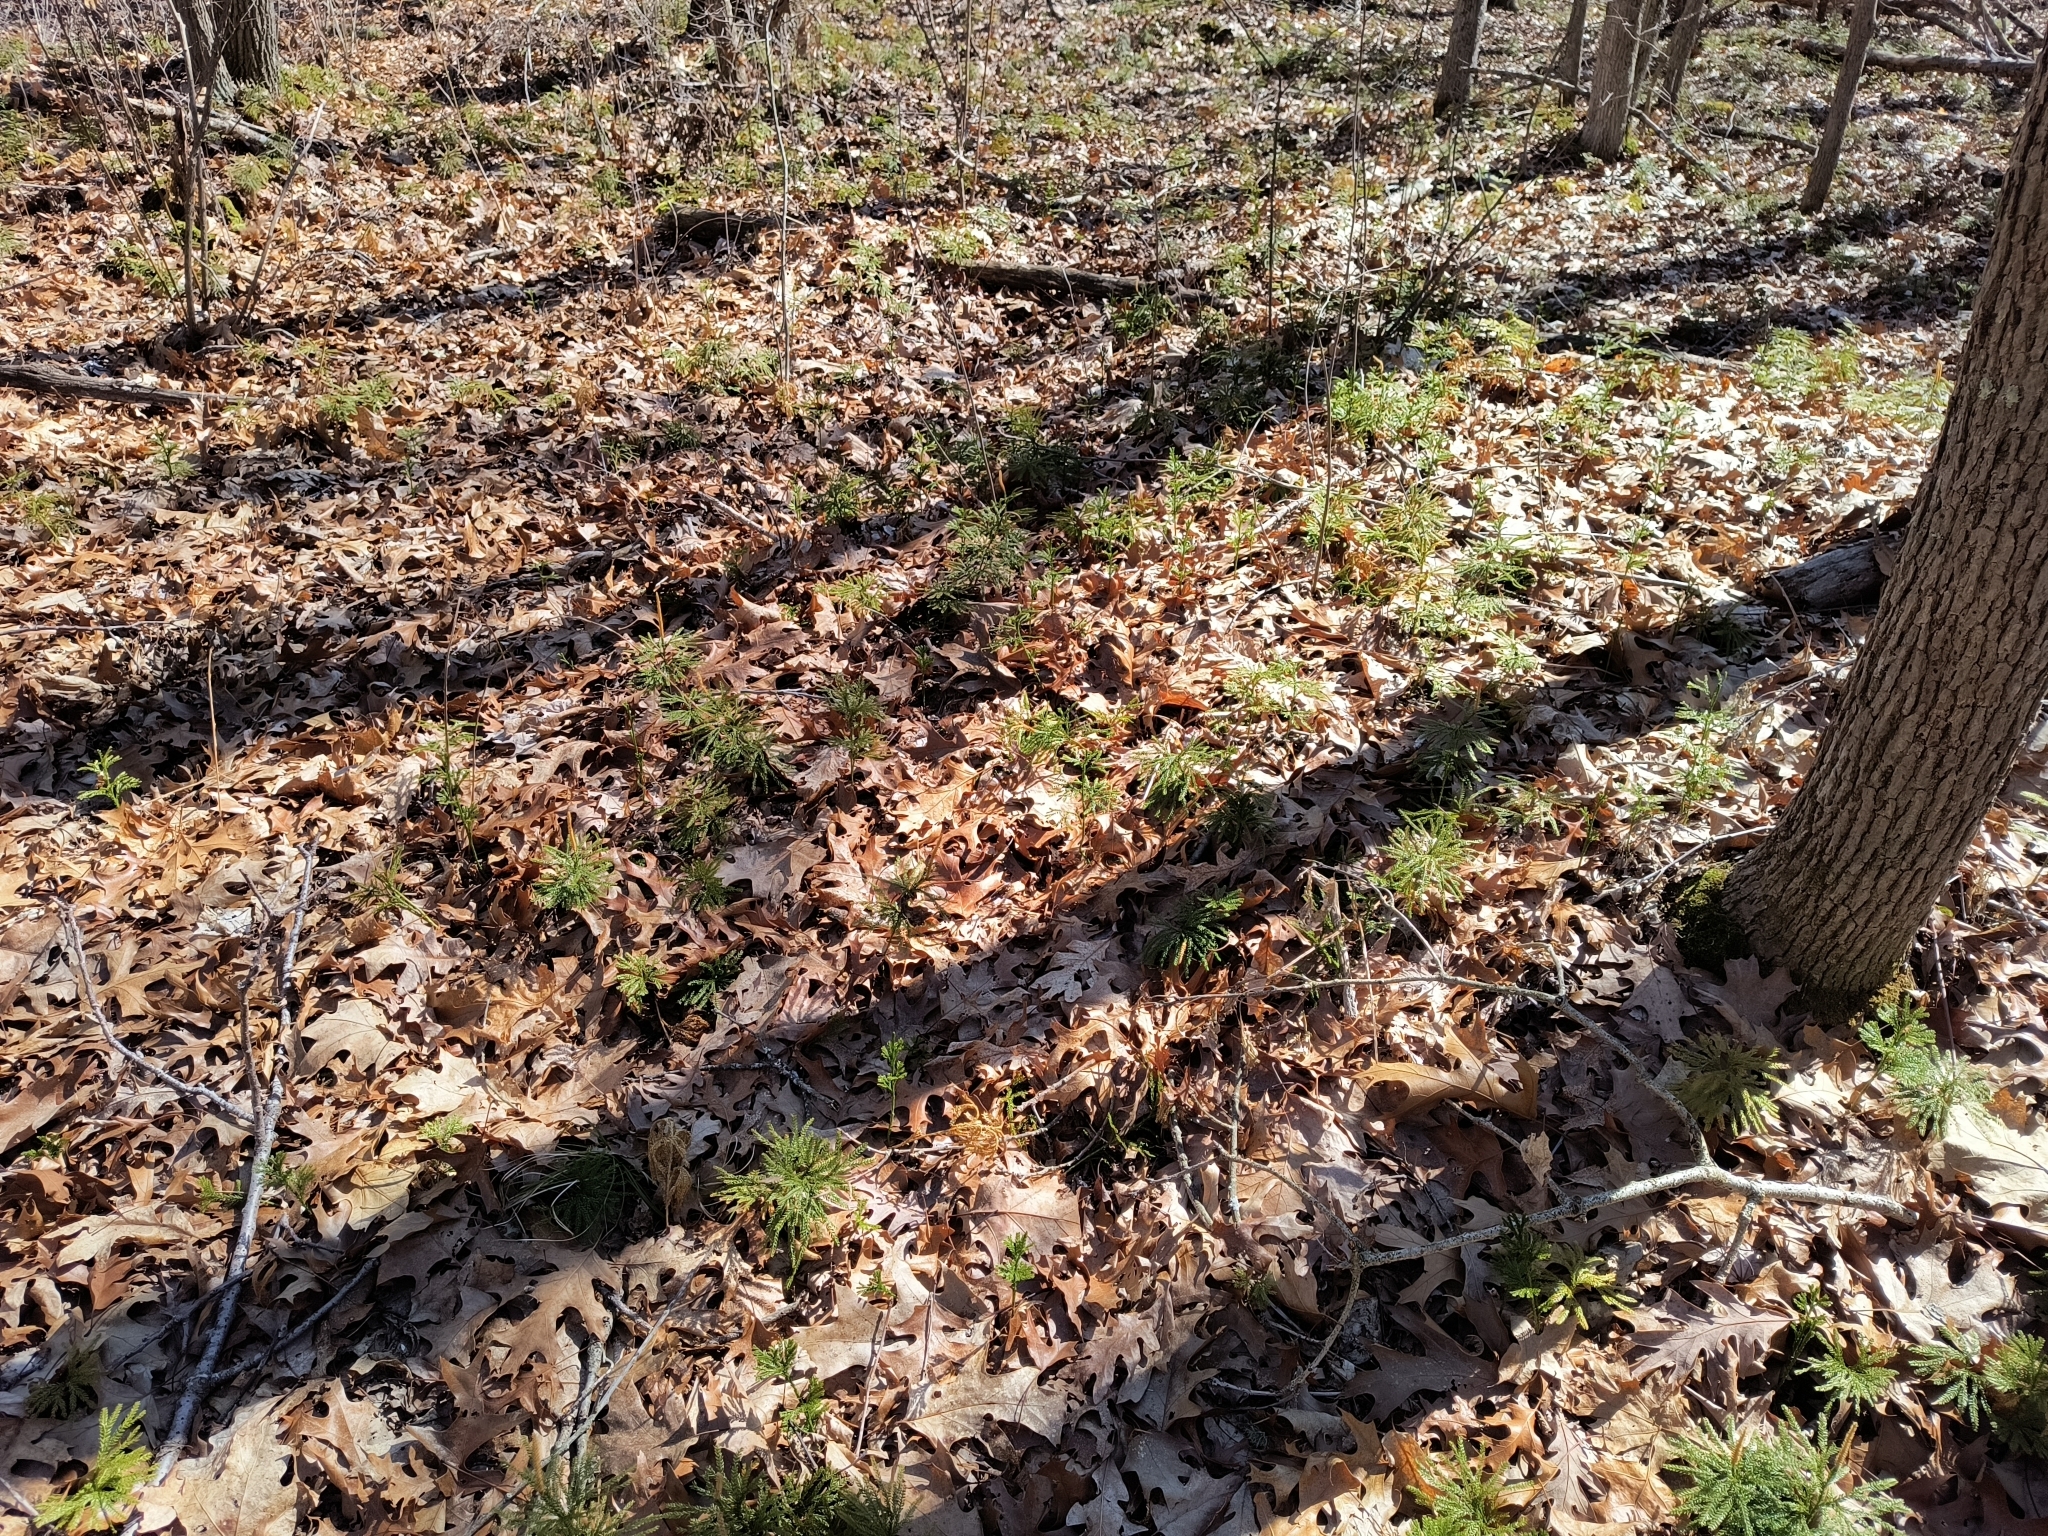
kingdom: Plantae
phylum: Tracheophyta
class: Lycopodiopsida
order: Lycopodiales
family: Lycopodiaceae
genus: Dendrolycopodium
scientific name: Dendrolycopodium obscurum
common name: Common ground-pine
